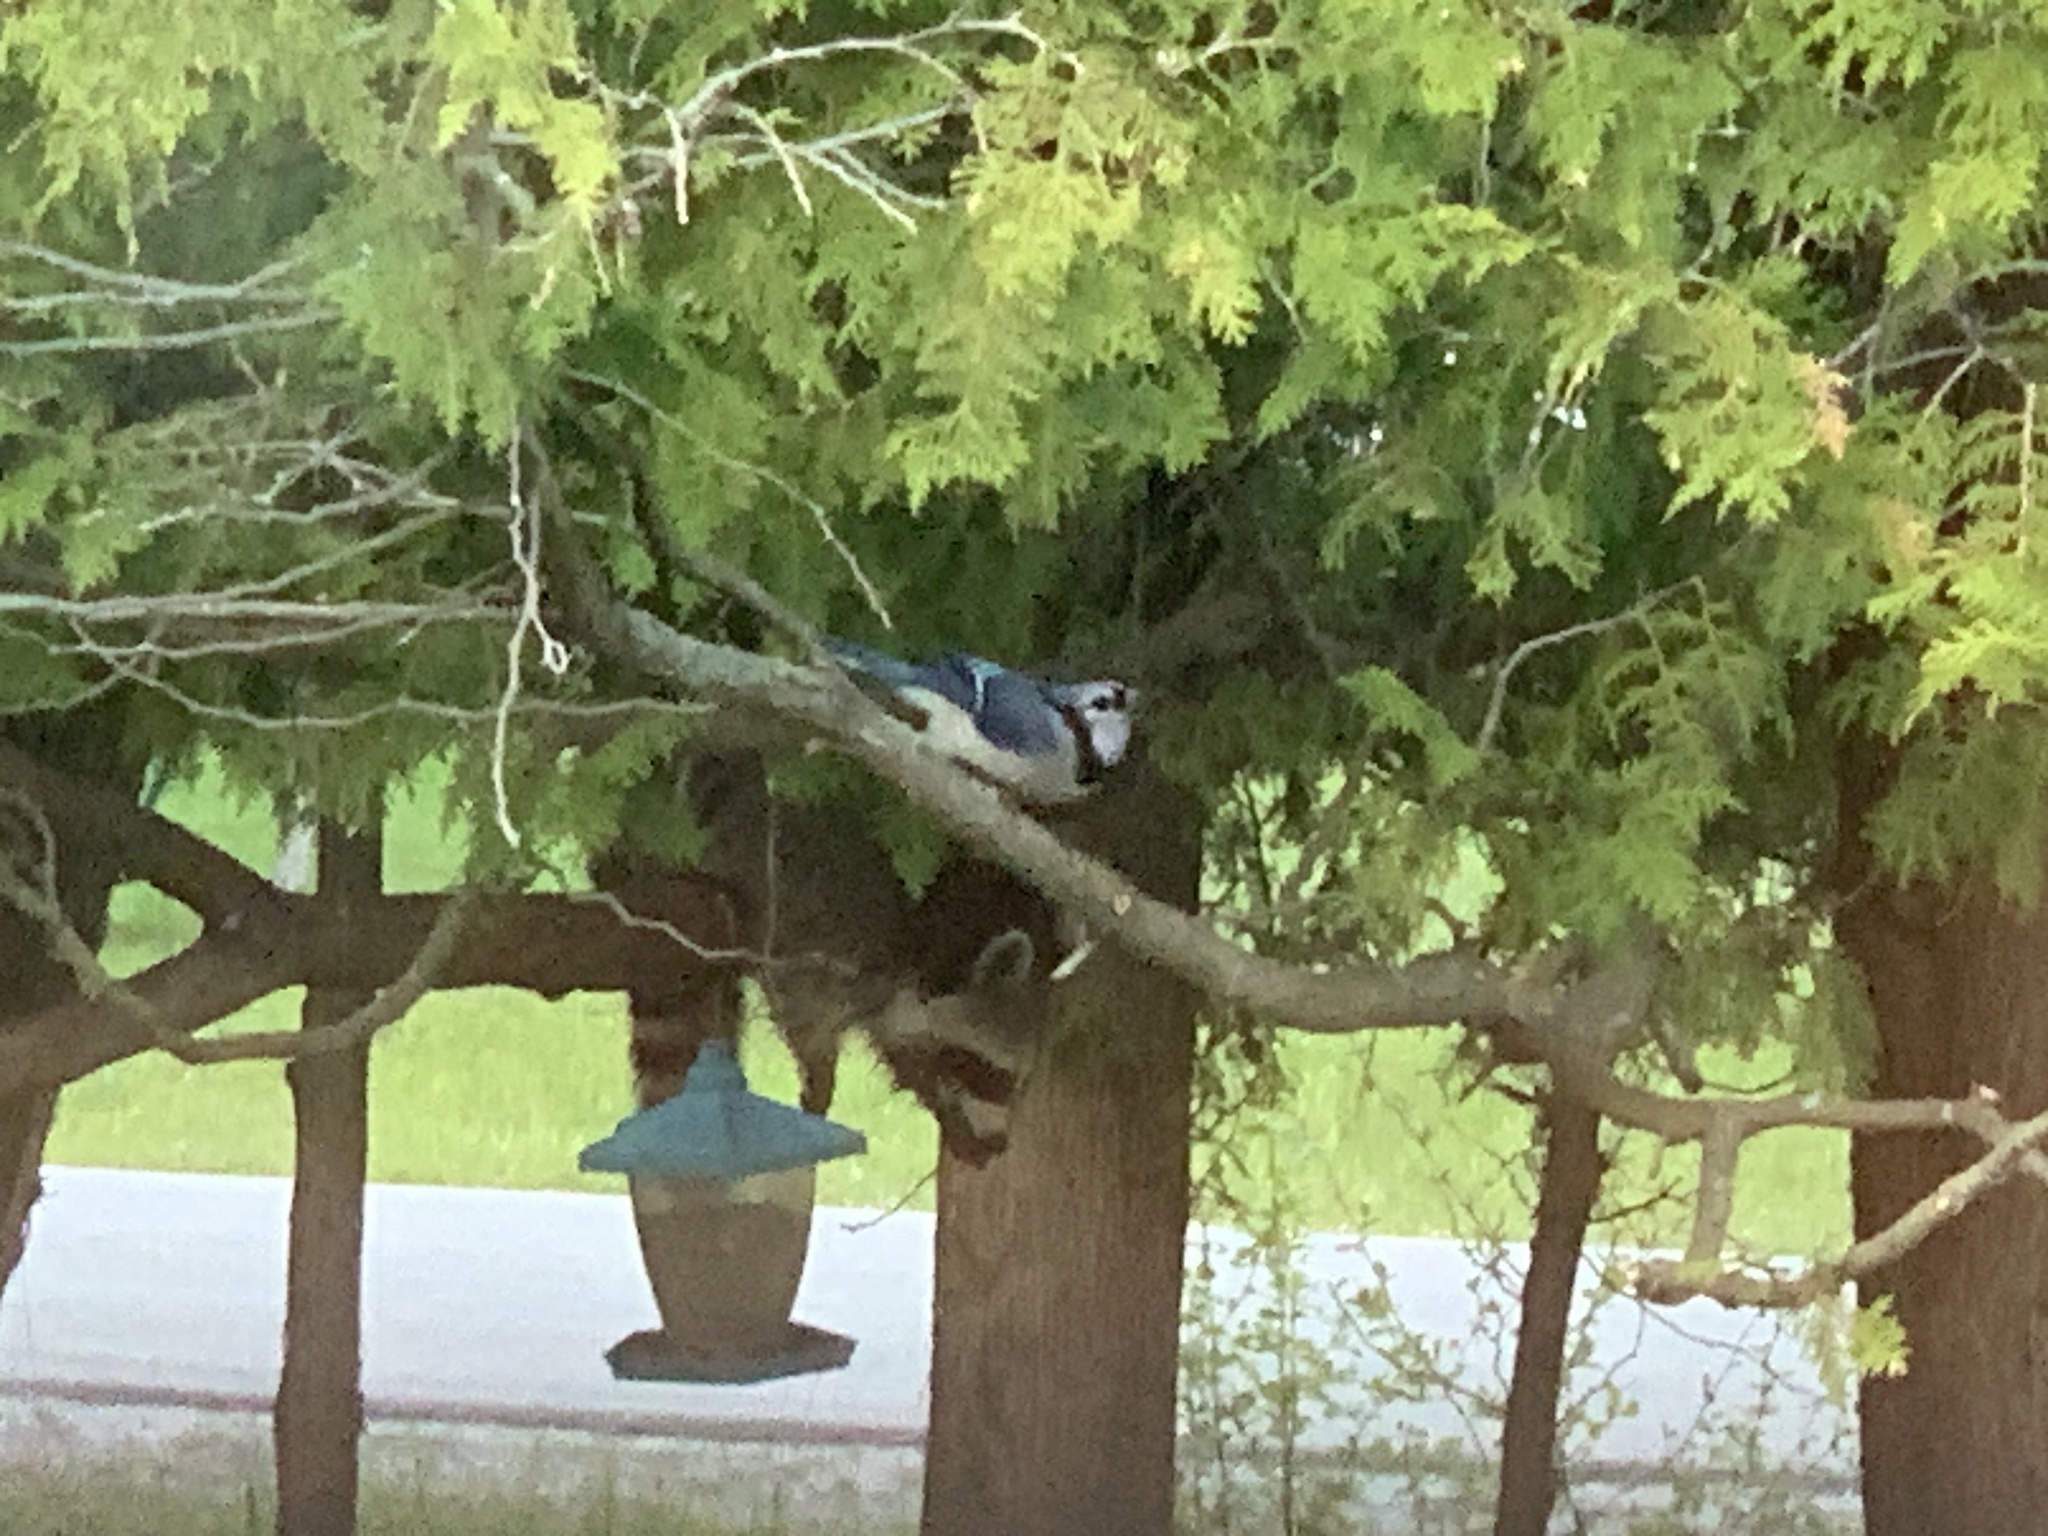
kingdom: Animalia
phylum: Chordata
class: Mammalia
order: Carnivora
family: Procyonidae
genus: Procyon
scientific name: Procyon lotor
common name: Raccoon
